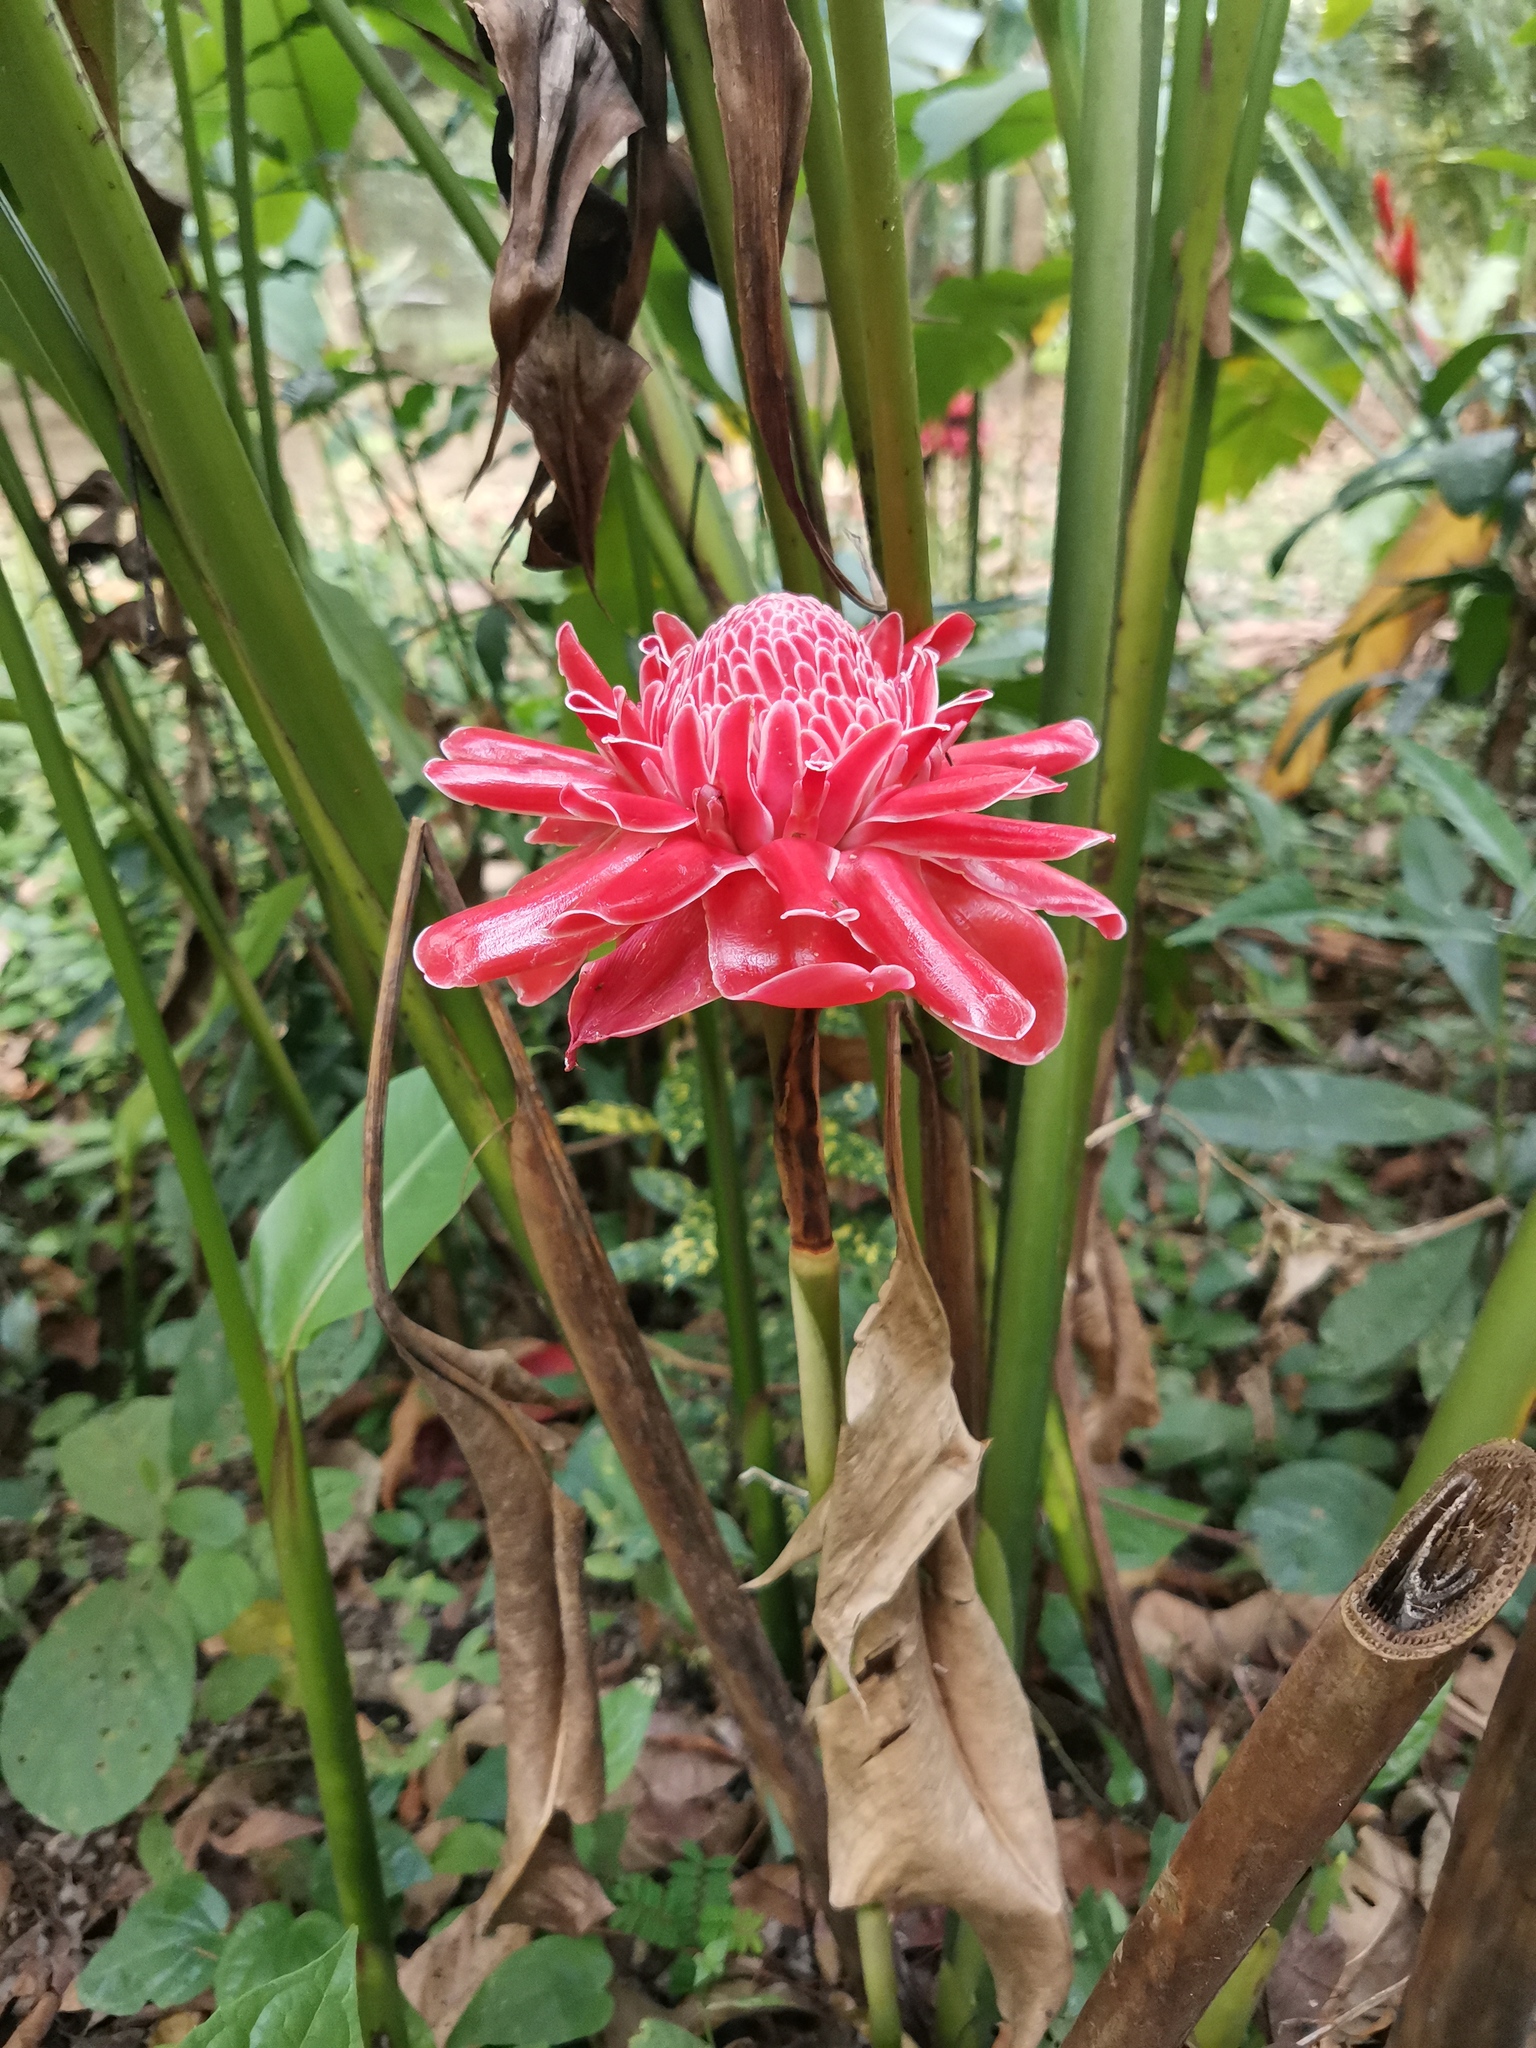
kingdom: Plantae
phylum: Tracheophyta
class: Liliopsida
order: Zingiberales
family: Zingiberaceae
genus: Etlingera
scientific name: Etlingera elatior
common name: Philippine waxflower
